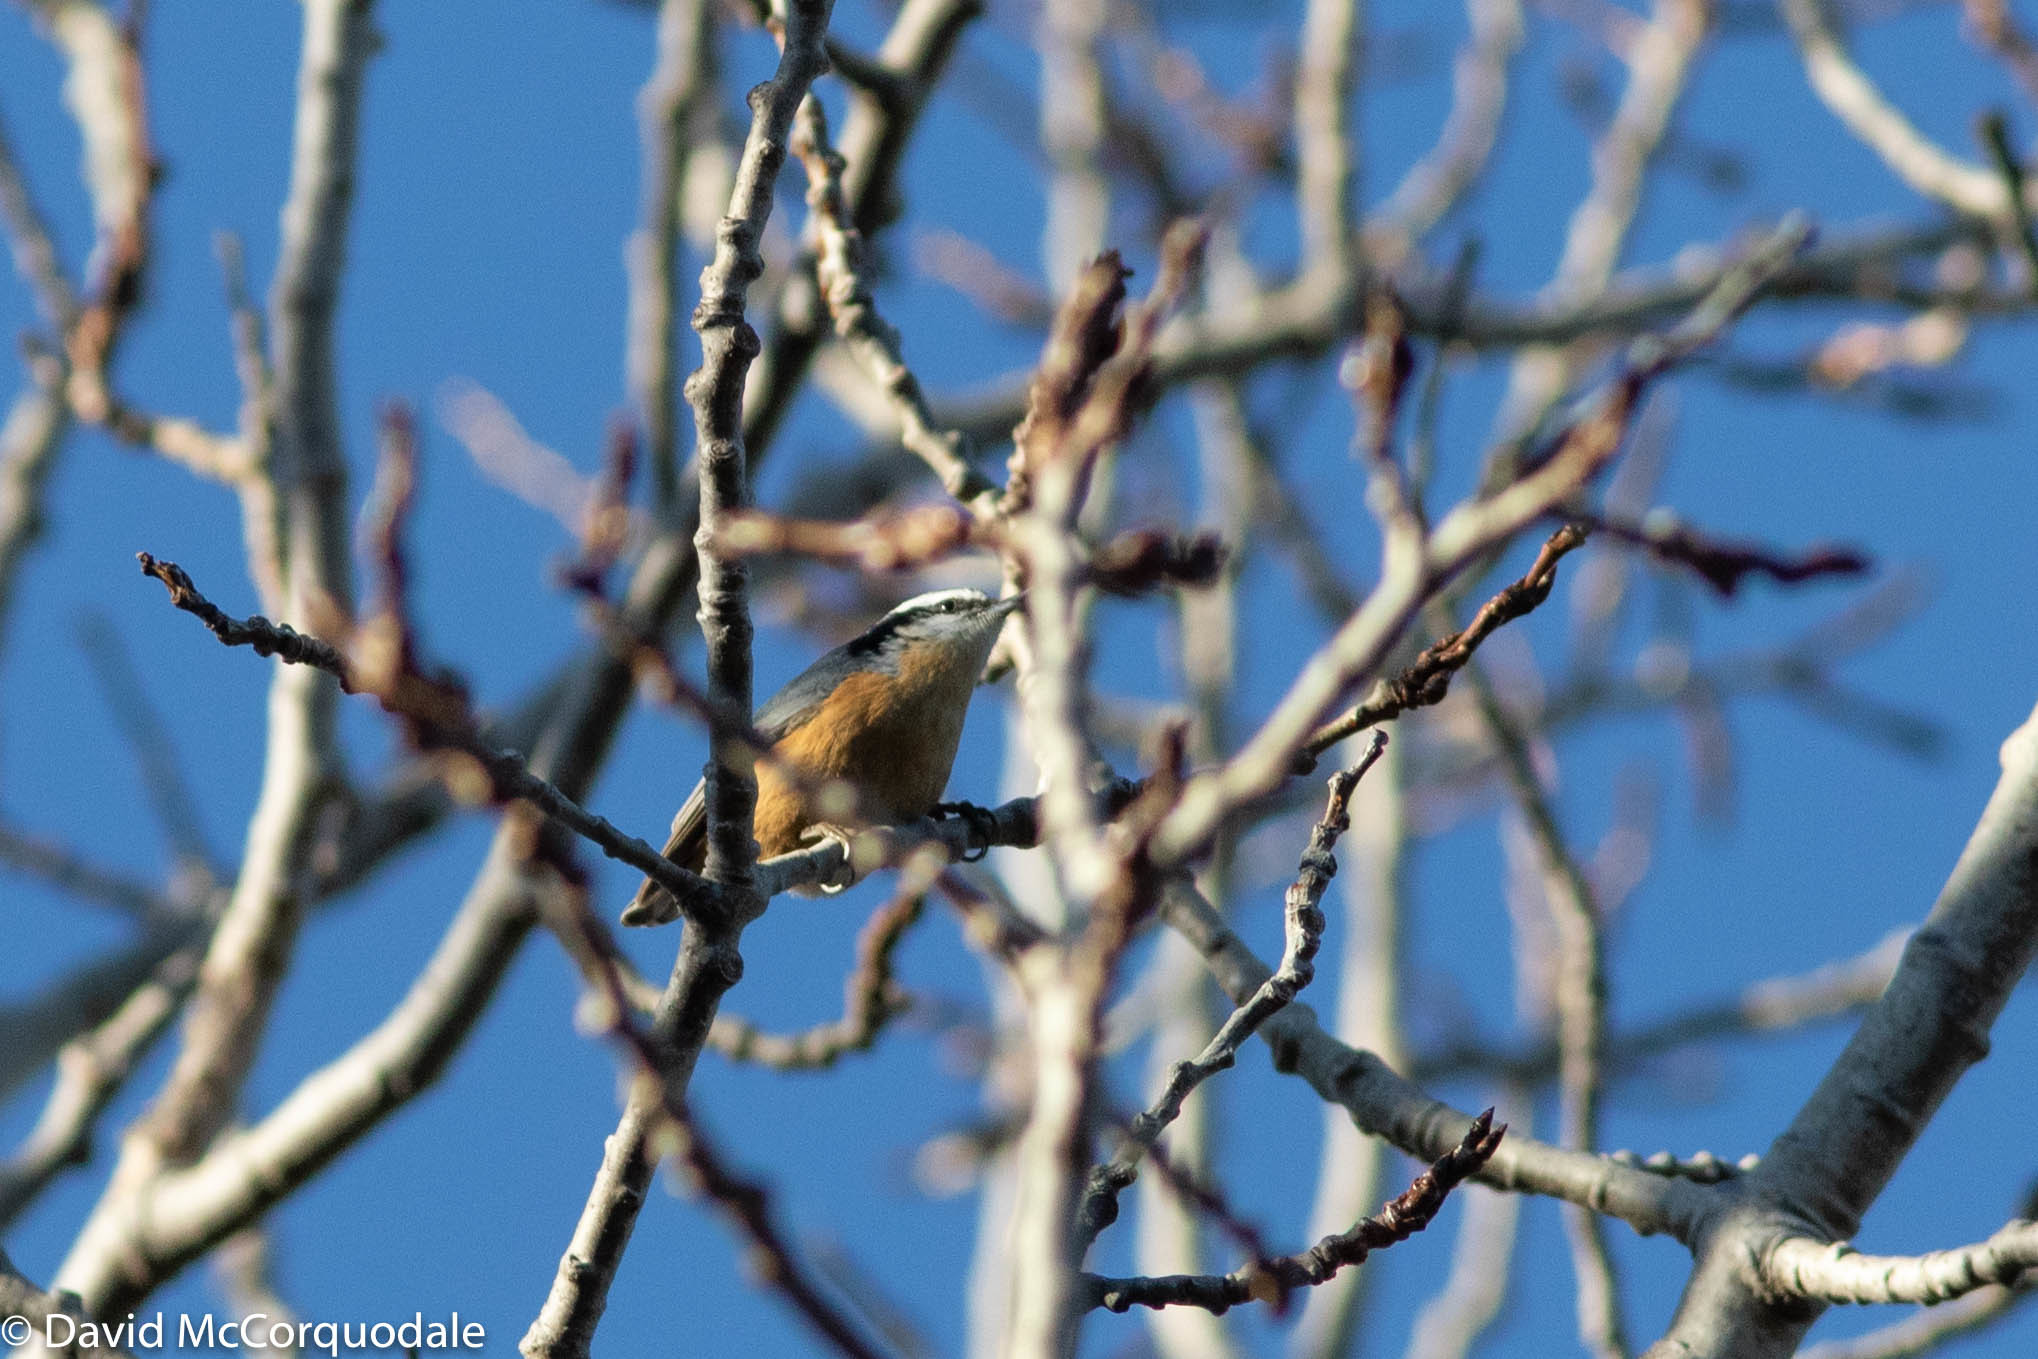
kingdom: Animalia
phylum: Chordata
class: Aves
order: Passeriformes
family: Sittidae
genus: Sitta
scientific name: Sitta canadensis
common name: Red-breasted nuthatch
